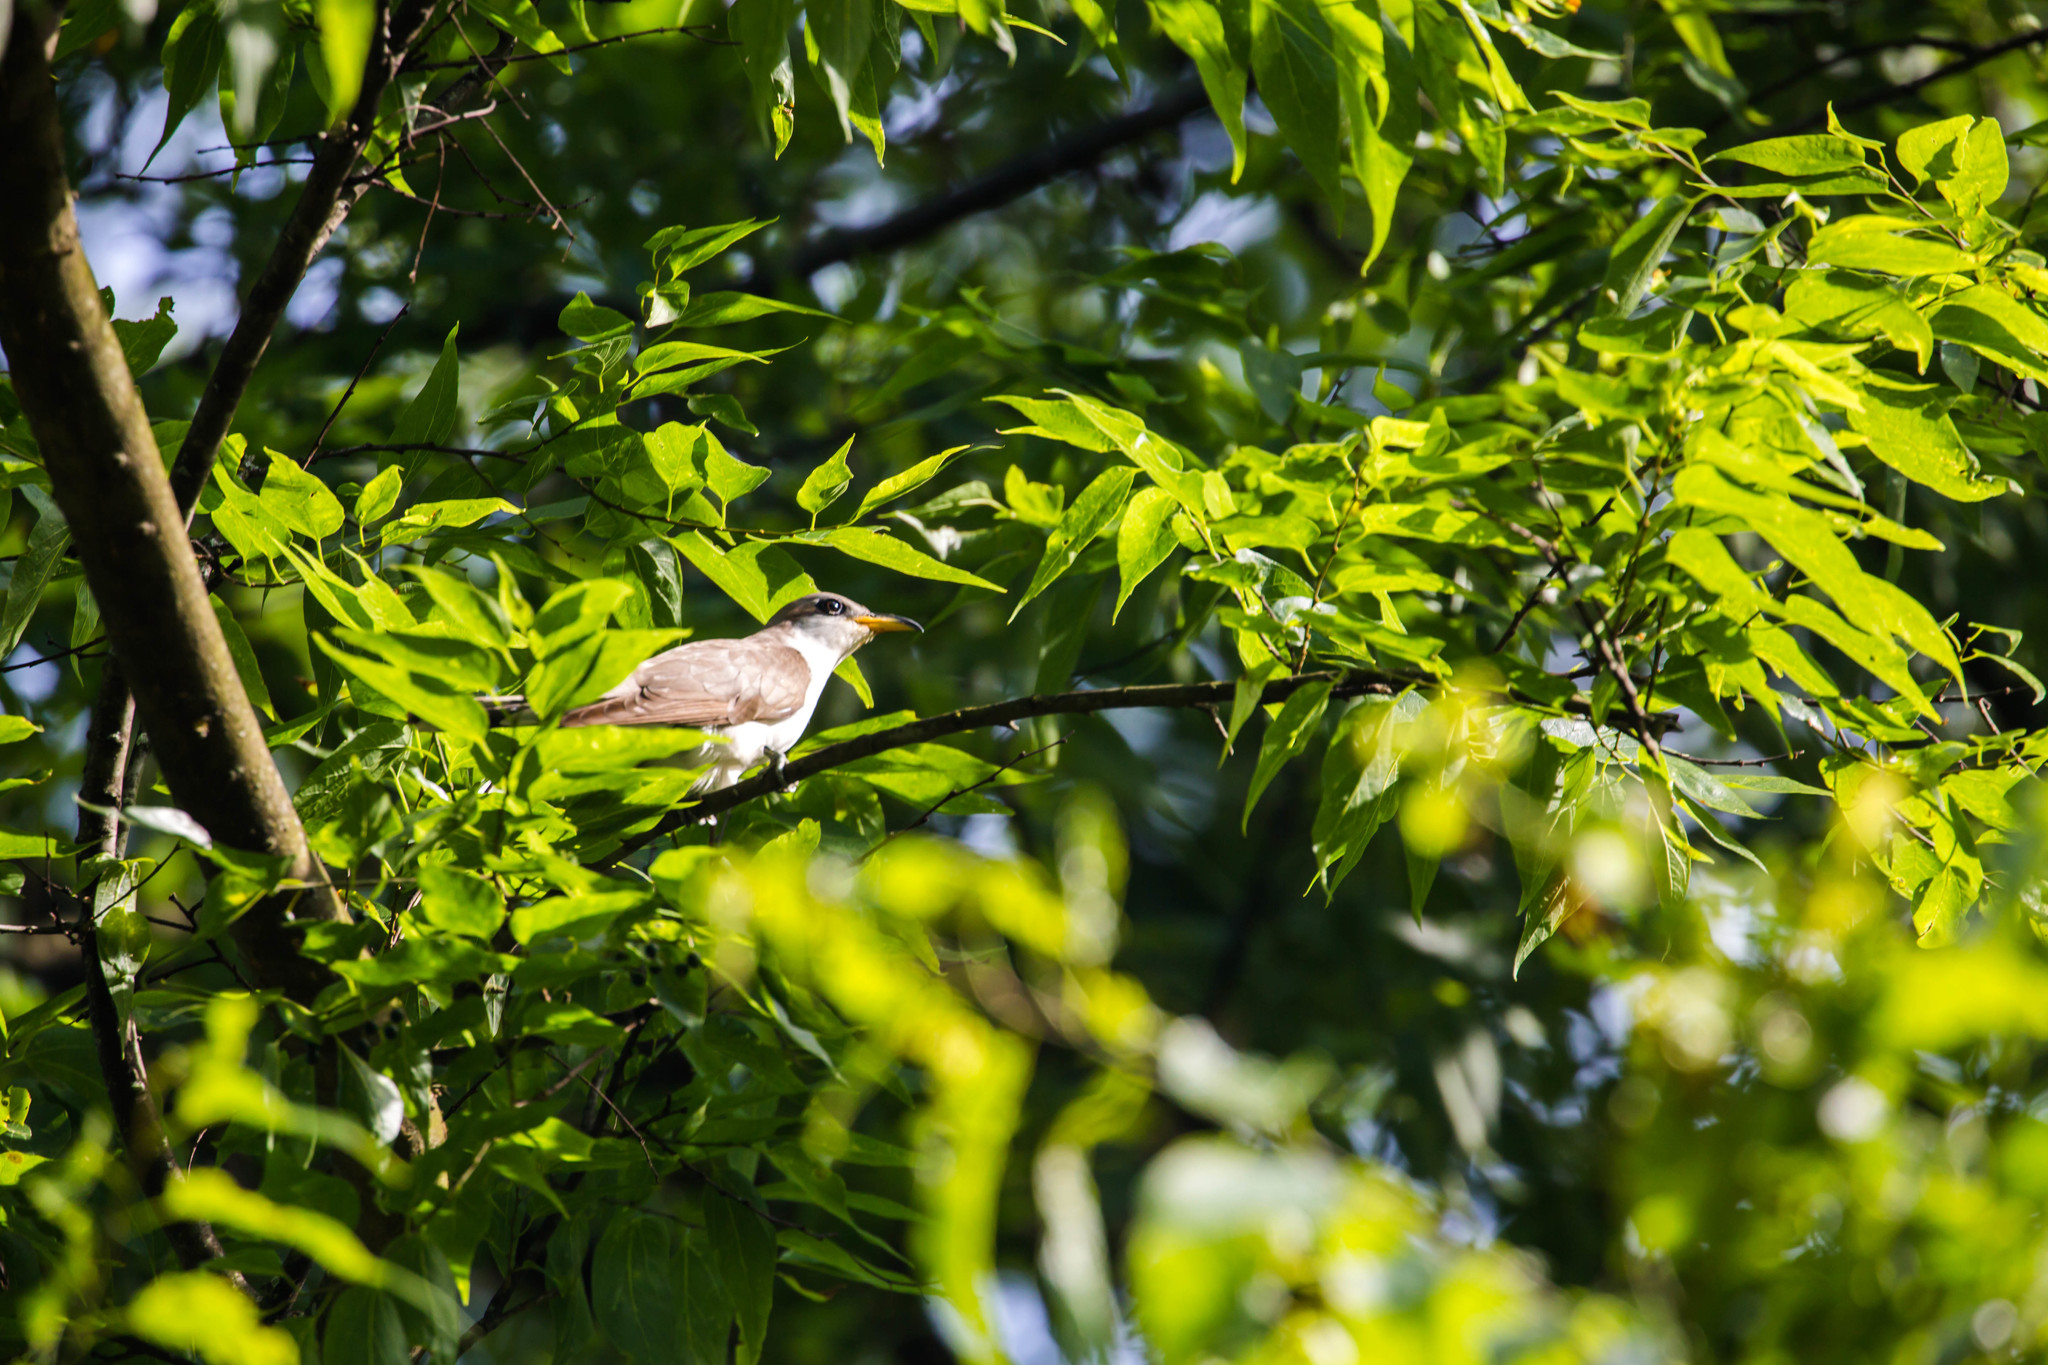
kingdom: Animalia
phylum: Chordata
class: Aves
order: Cuculiformes
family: Cuculidae
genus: Coccyzus
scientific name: Coccyzus americanus
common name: Yellow-billed cuckoo
